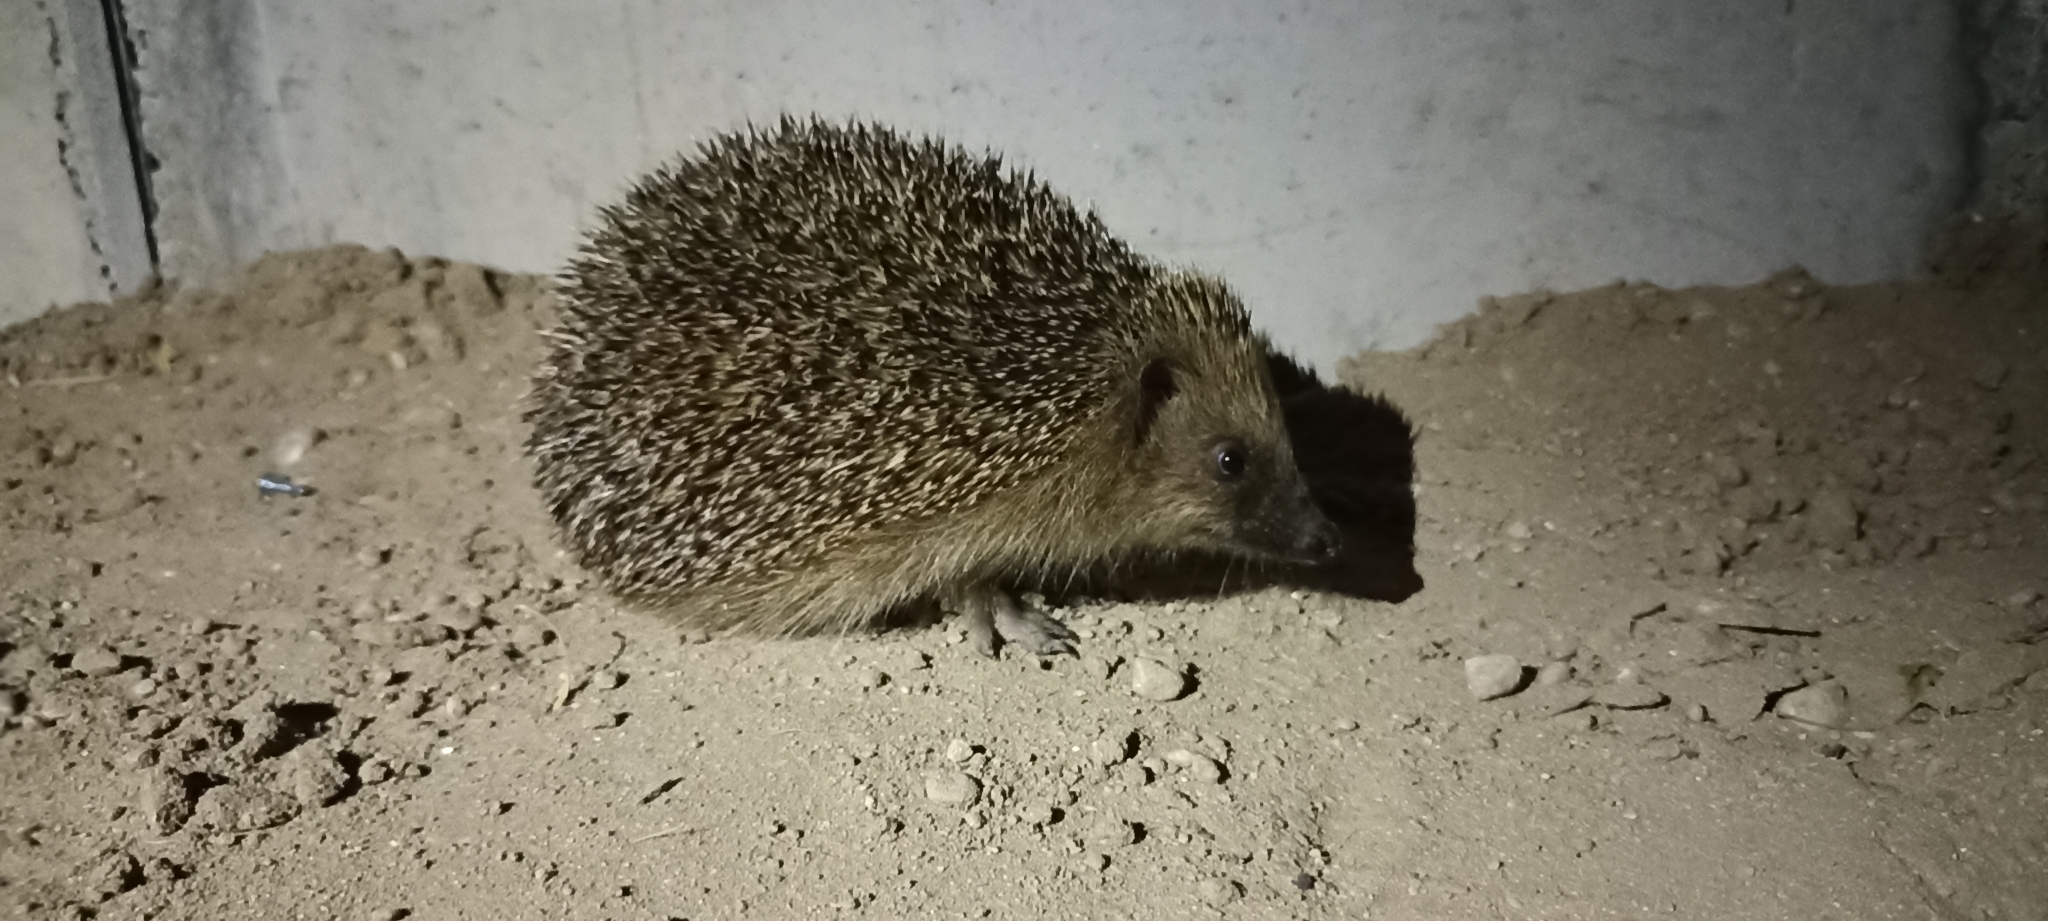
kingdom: Animalia
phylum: Chordata
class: Mammalia
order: Erinaceomorpha
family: Erinaceidae
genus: Erinaceus
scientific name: Erinaceus europaeus
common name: West european hedgehog
